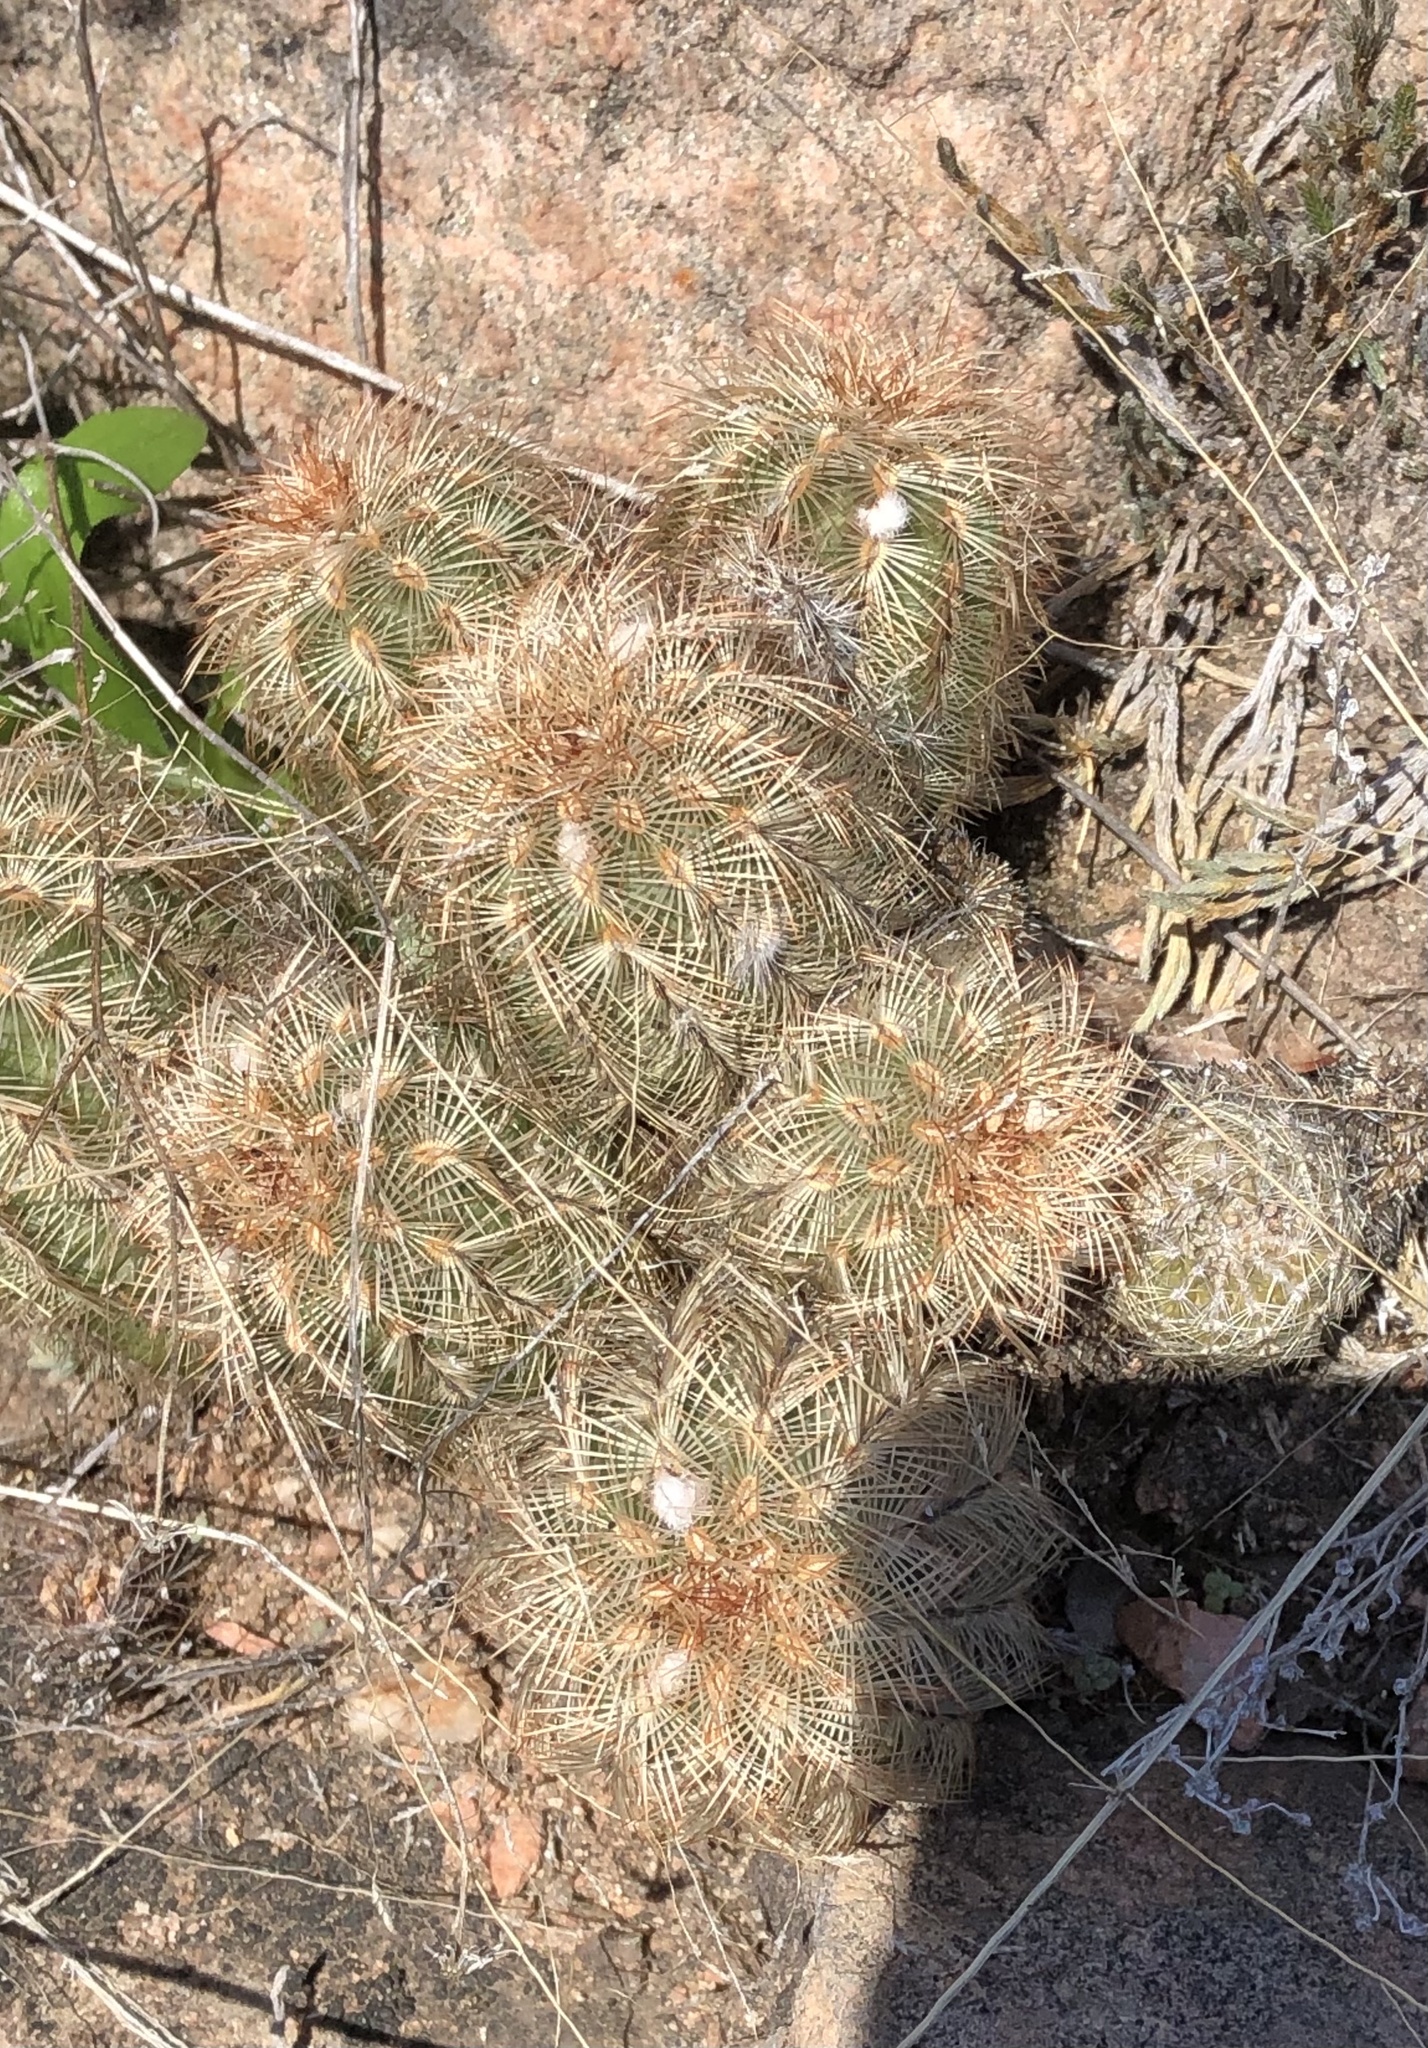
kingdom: Plantae
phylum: Tracheophyta
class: Magnoliopsida
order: Caryophyllales
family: Cactaceae
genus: Echinocereus
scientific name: Echinocereus reichenbachii
